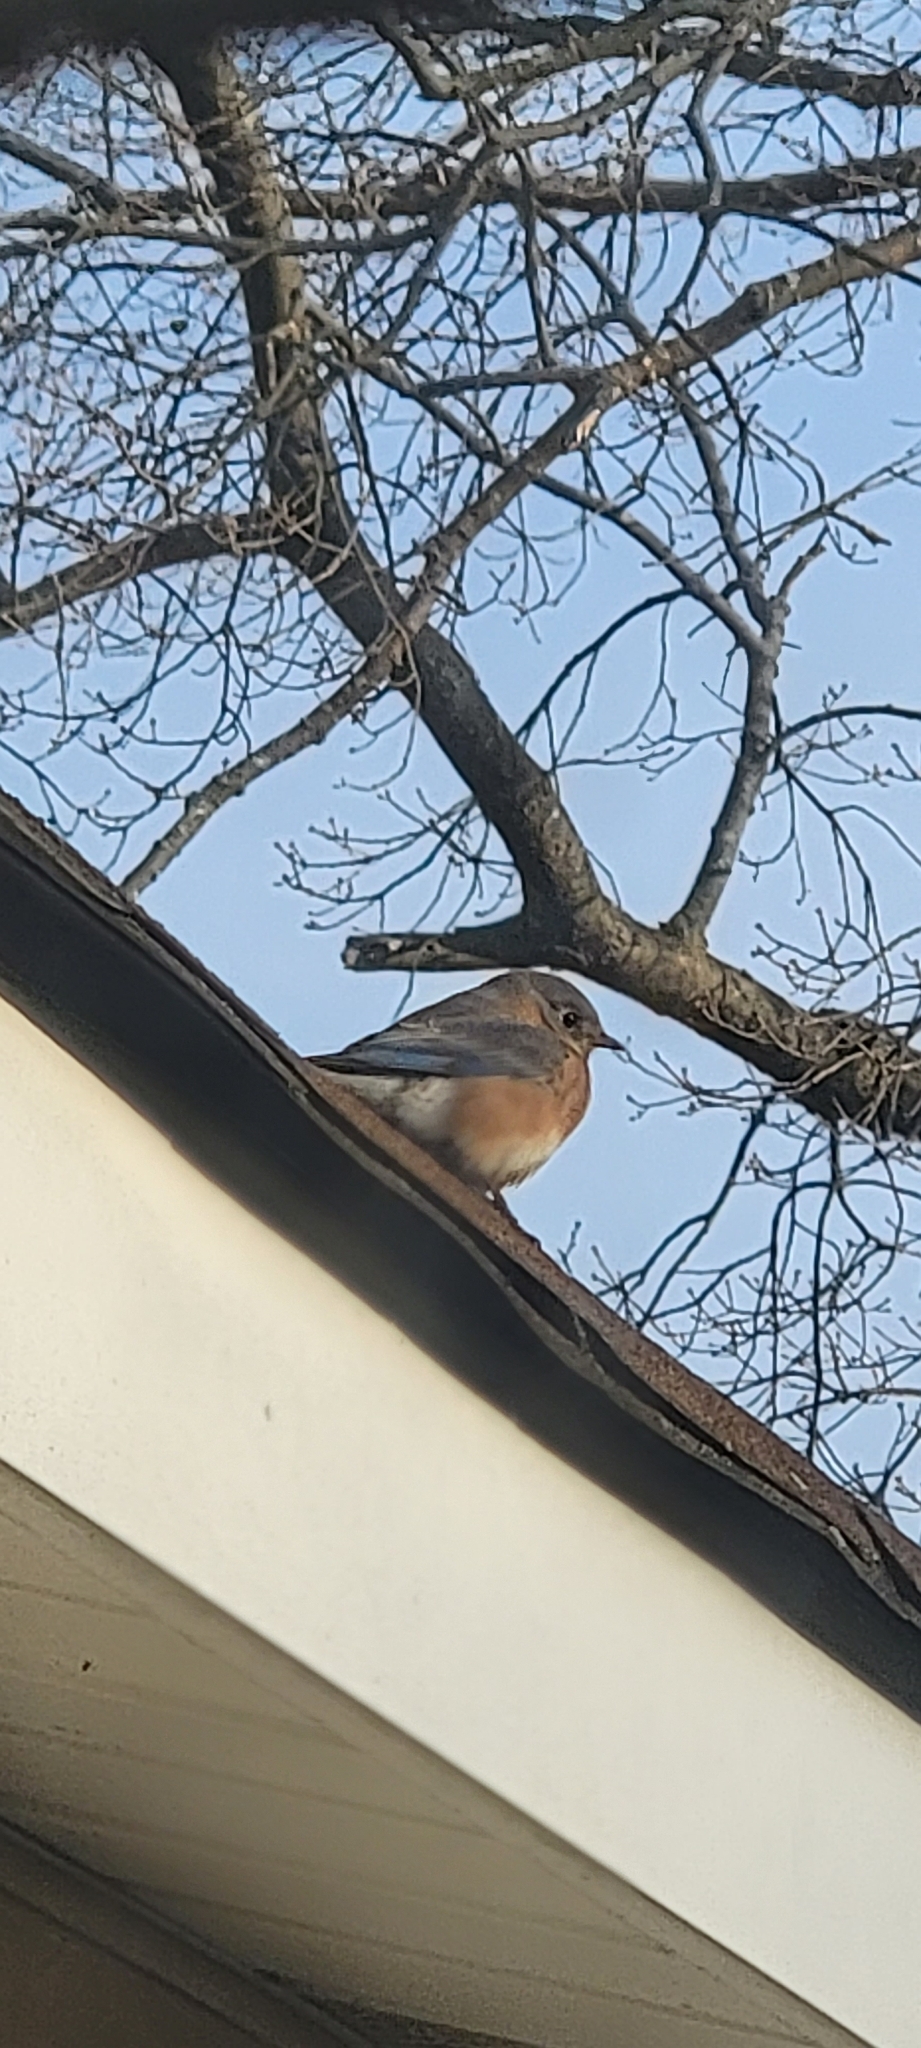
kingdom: Animalia
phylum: Chordata
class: Aves
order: Passeriformes
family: Turdidae
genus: Sialia
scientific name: Sialia sialis
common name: Eastern bluebird
